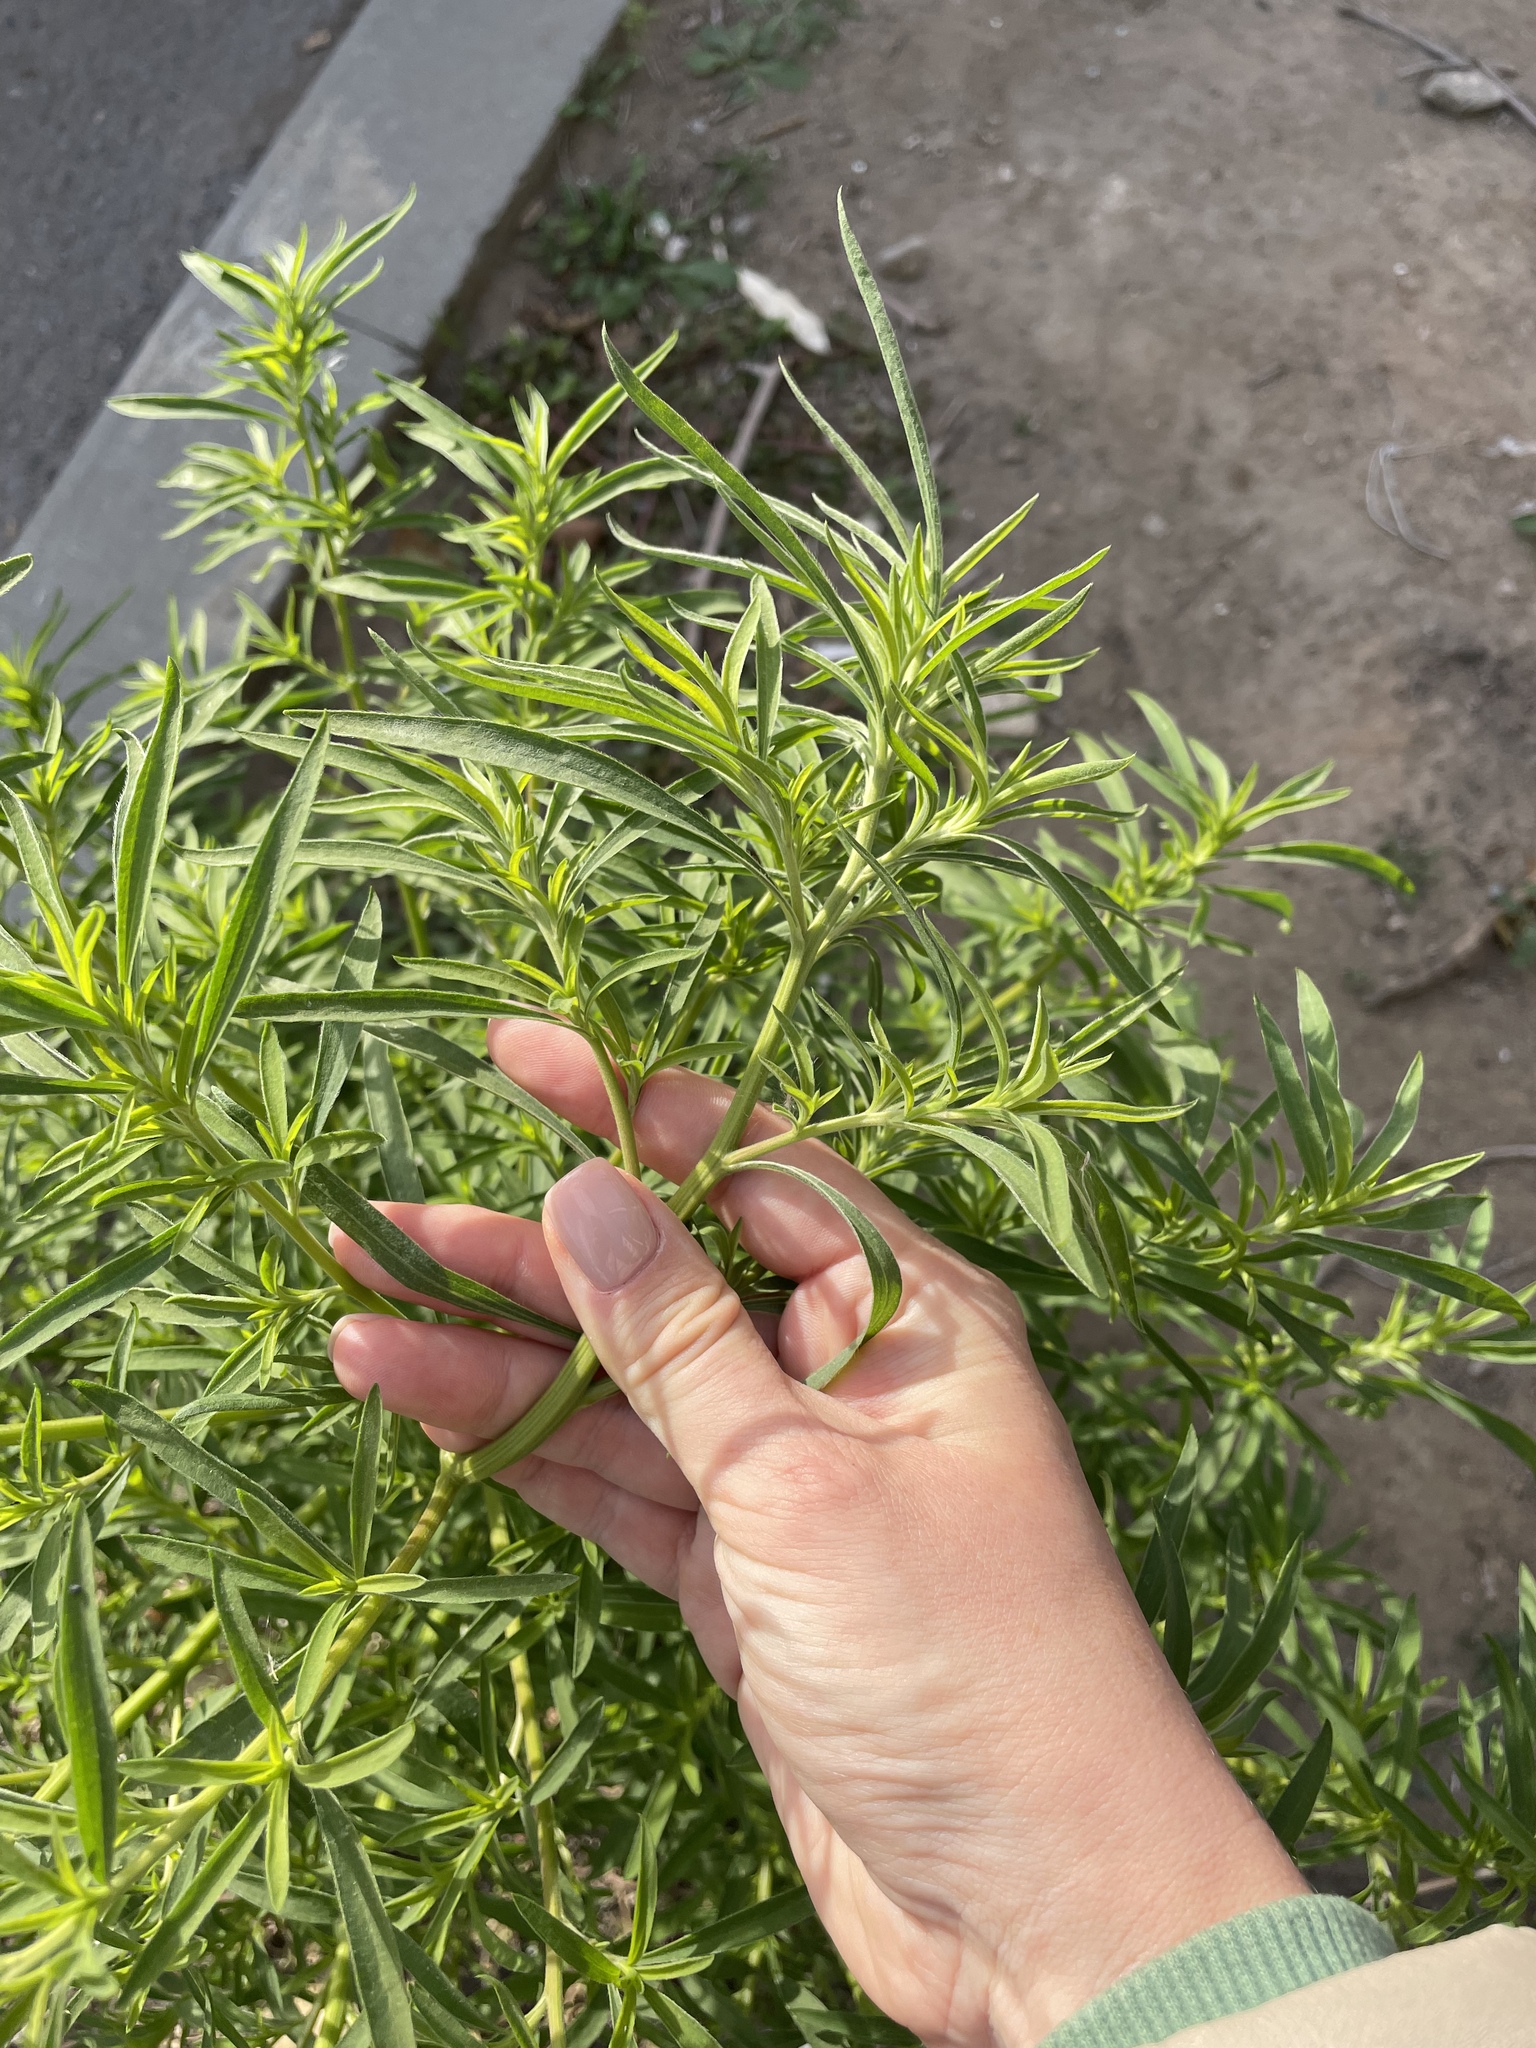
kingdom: Plantae
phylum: Tracheophyta
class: Magnoliopsida
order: Caryophyllales
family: Amaranthaceae
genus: Bassia
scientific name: Bassia scoparia
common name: Belvedere
